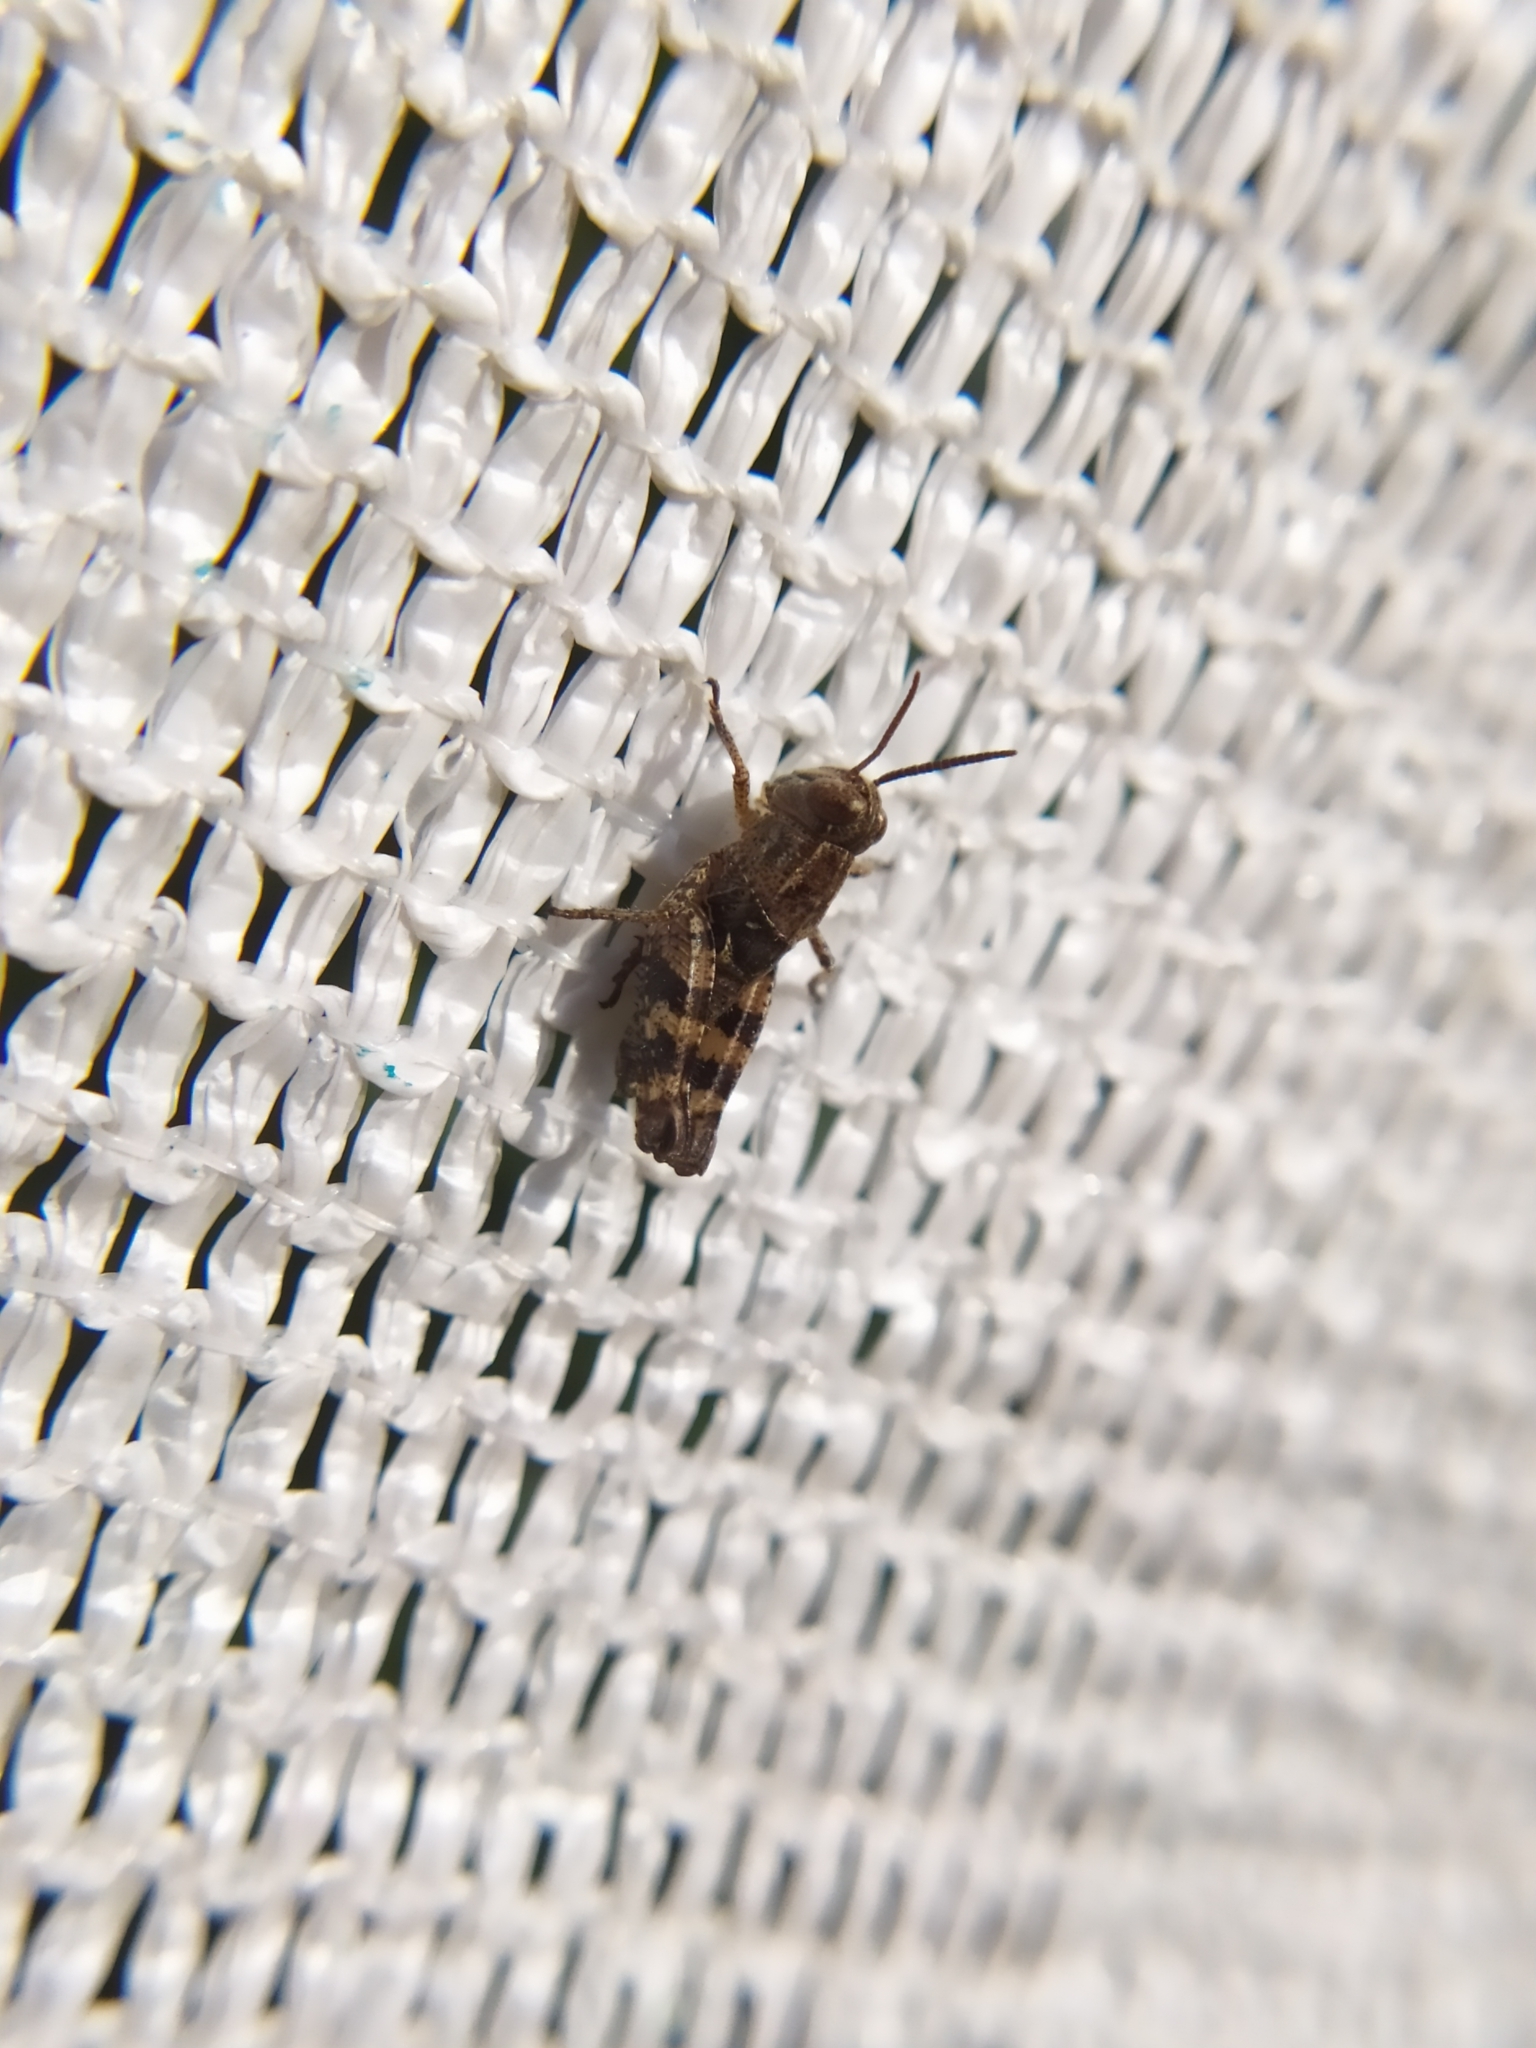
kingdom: Animalia
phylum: Arthropoda
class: Insecta
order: Orthoptera
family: Acrididae
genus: Calliptamus
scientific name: Calliptamus italicus
